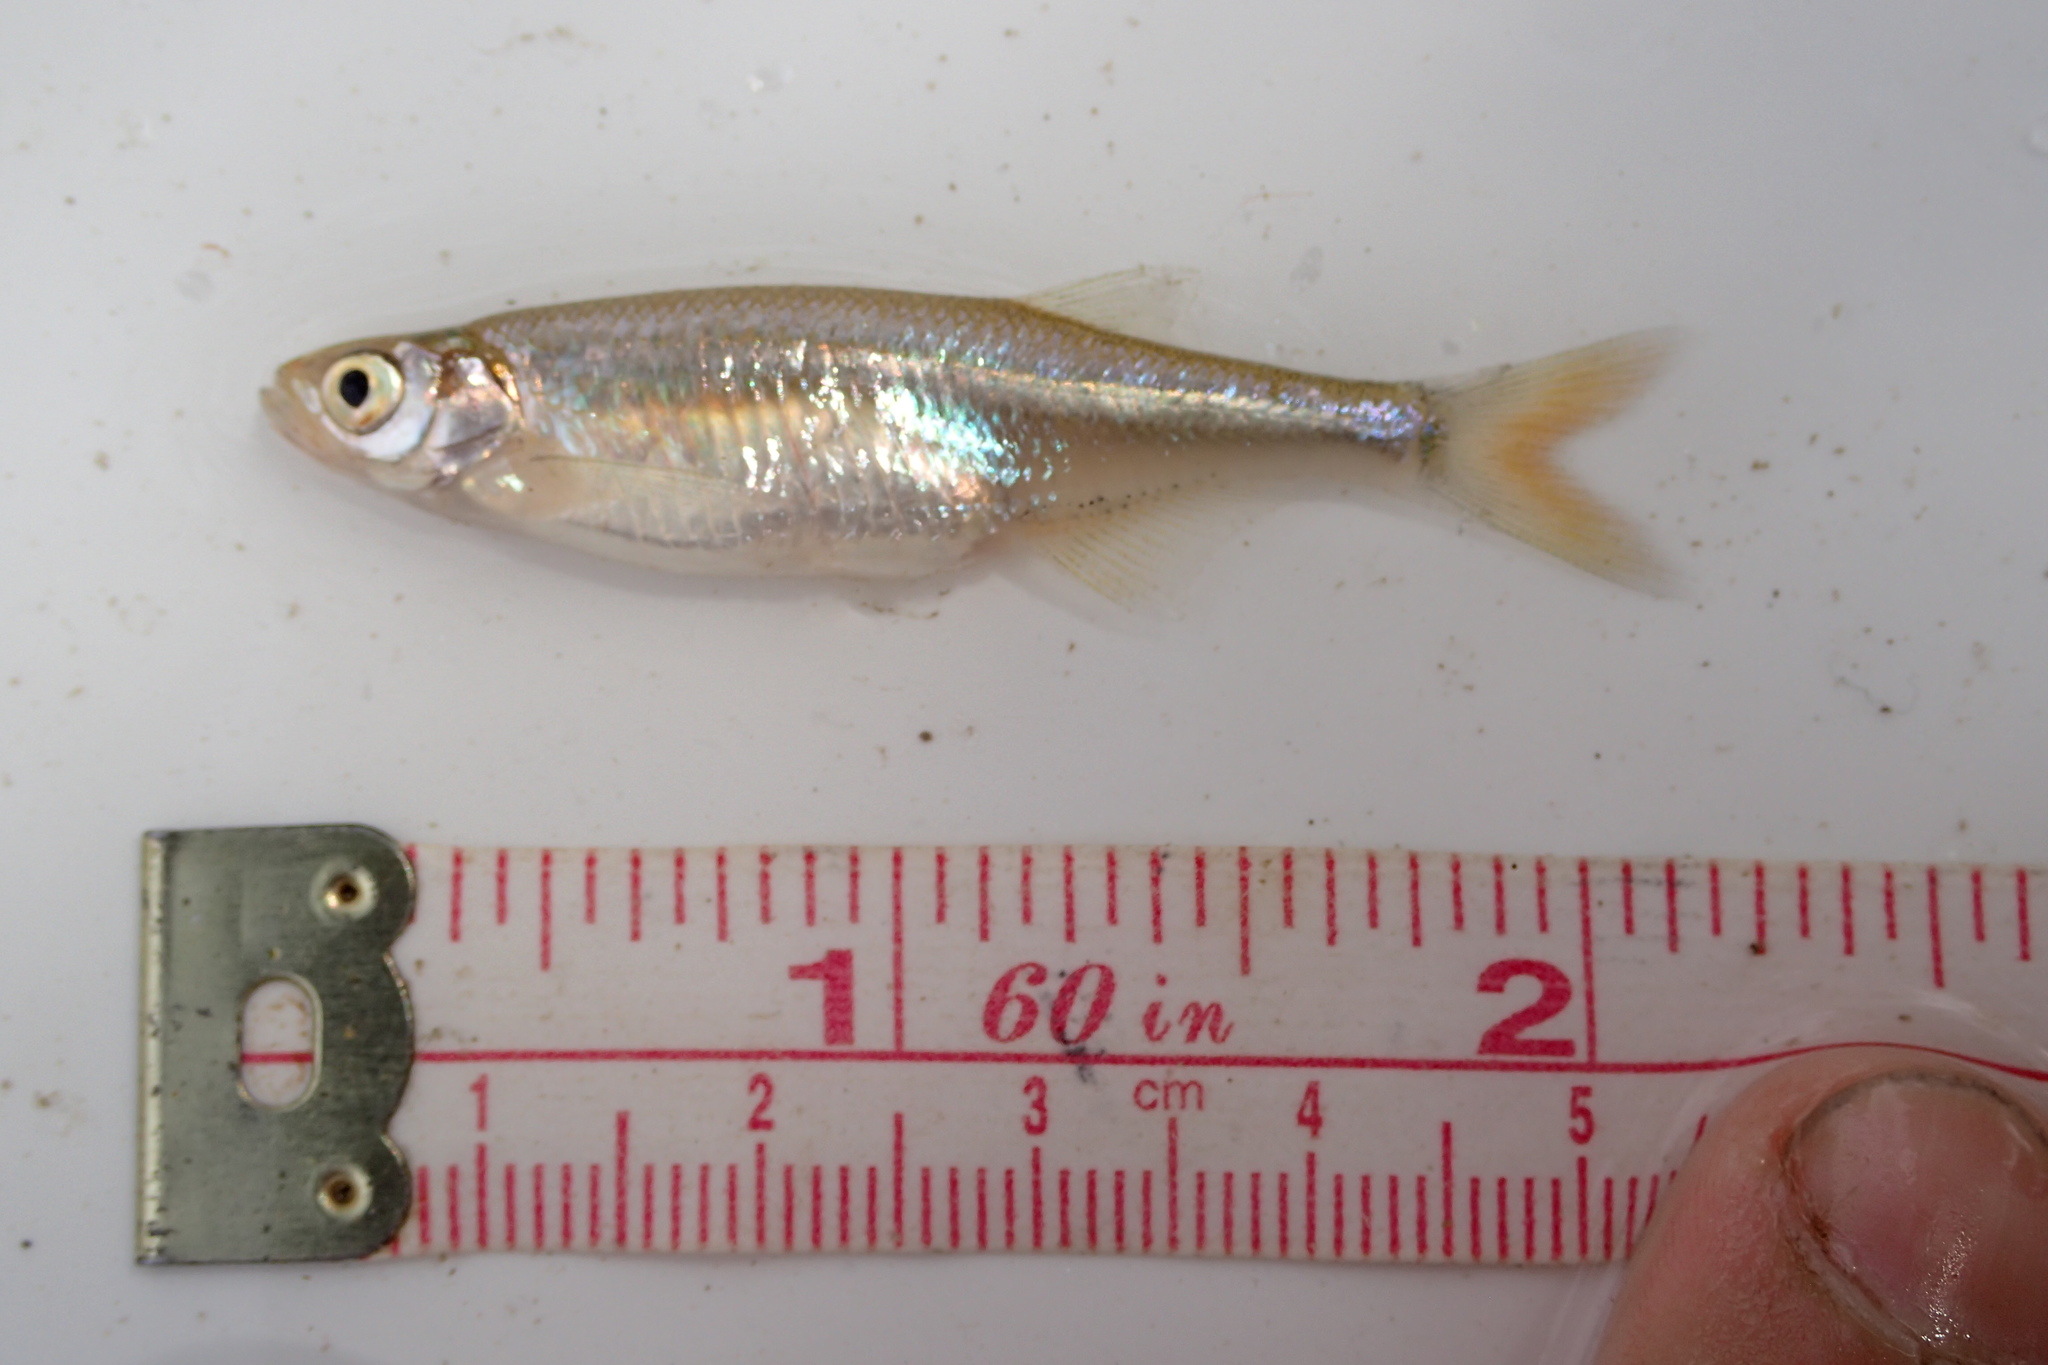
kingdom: Animalia
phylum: Chordata
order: Cypriniformes
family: Cyprinidae
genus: Engraulicypris
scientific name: Engraulicypris brevianalis
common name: River sardine
